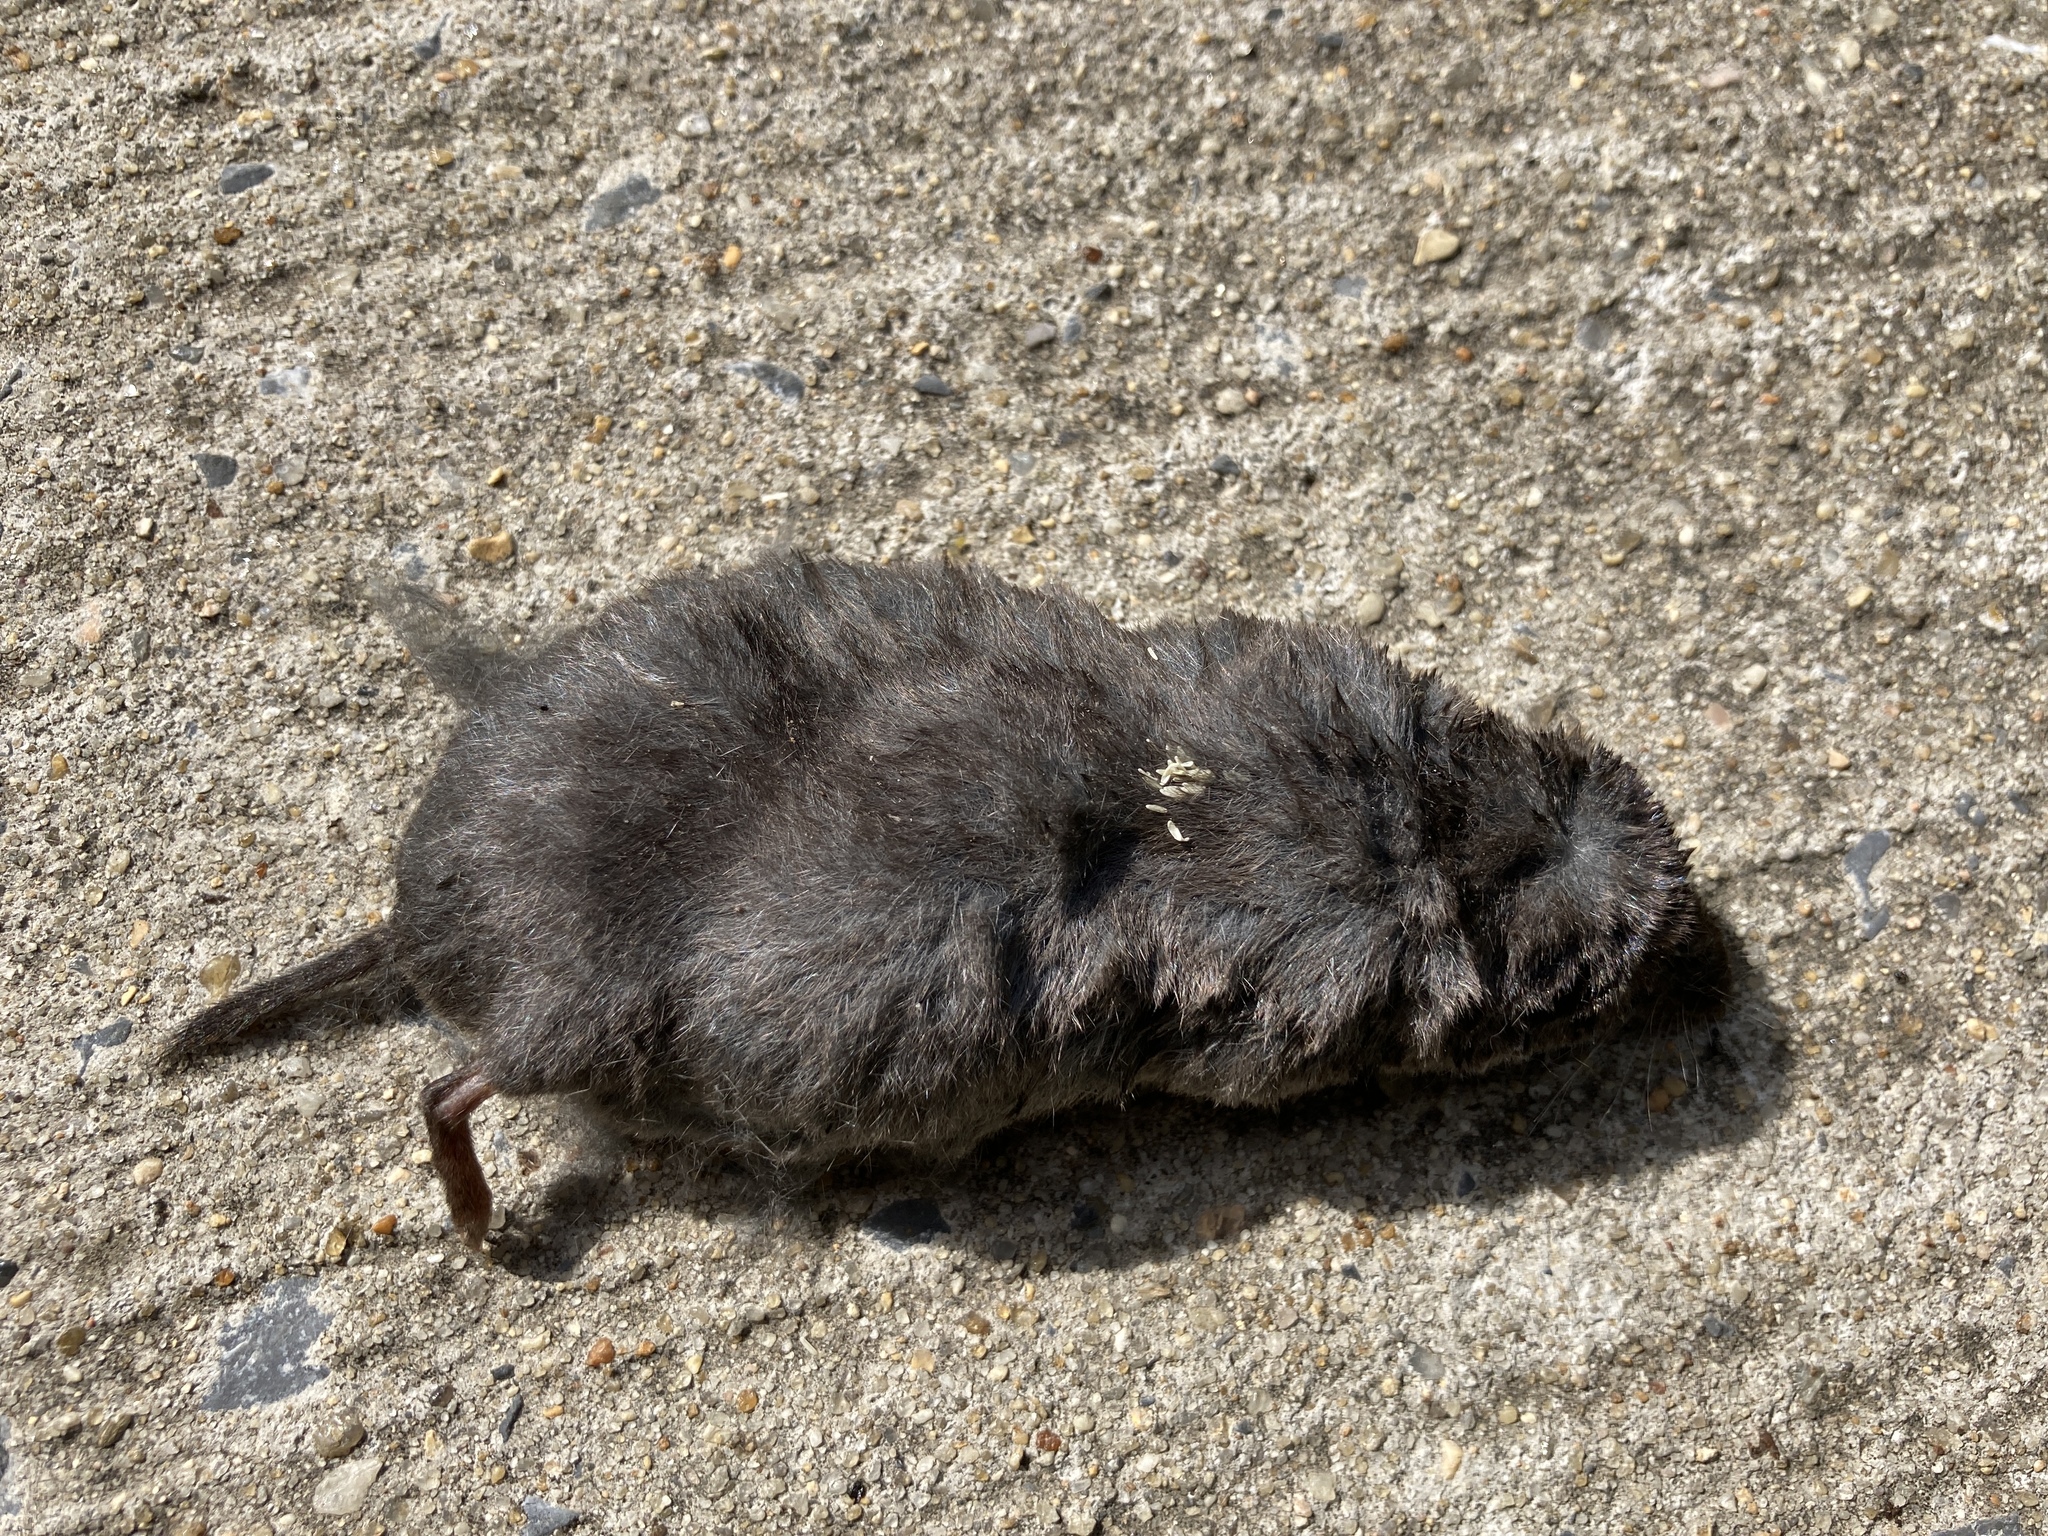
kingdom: Animalia
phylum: Chordata
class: Mammalia
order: Soricomorpha
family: Soricidae
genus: Blarina
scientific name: Blarina brevicauda
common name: Northern short-tailed shrew
